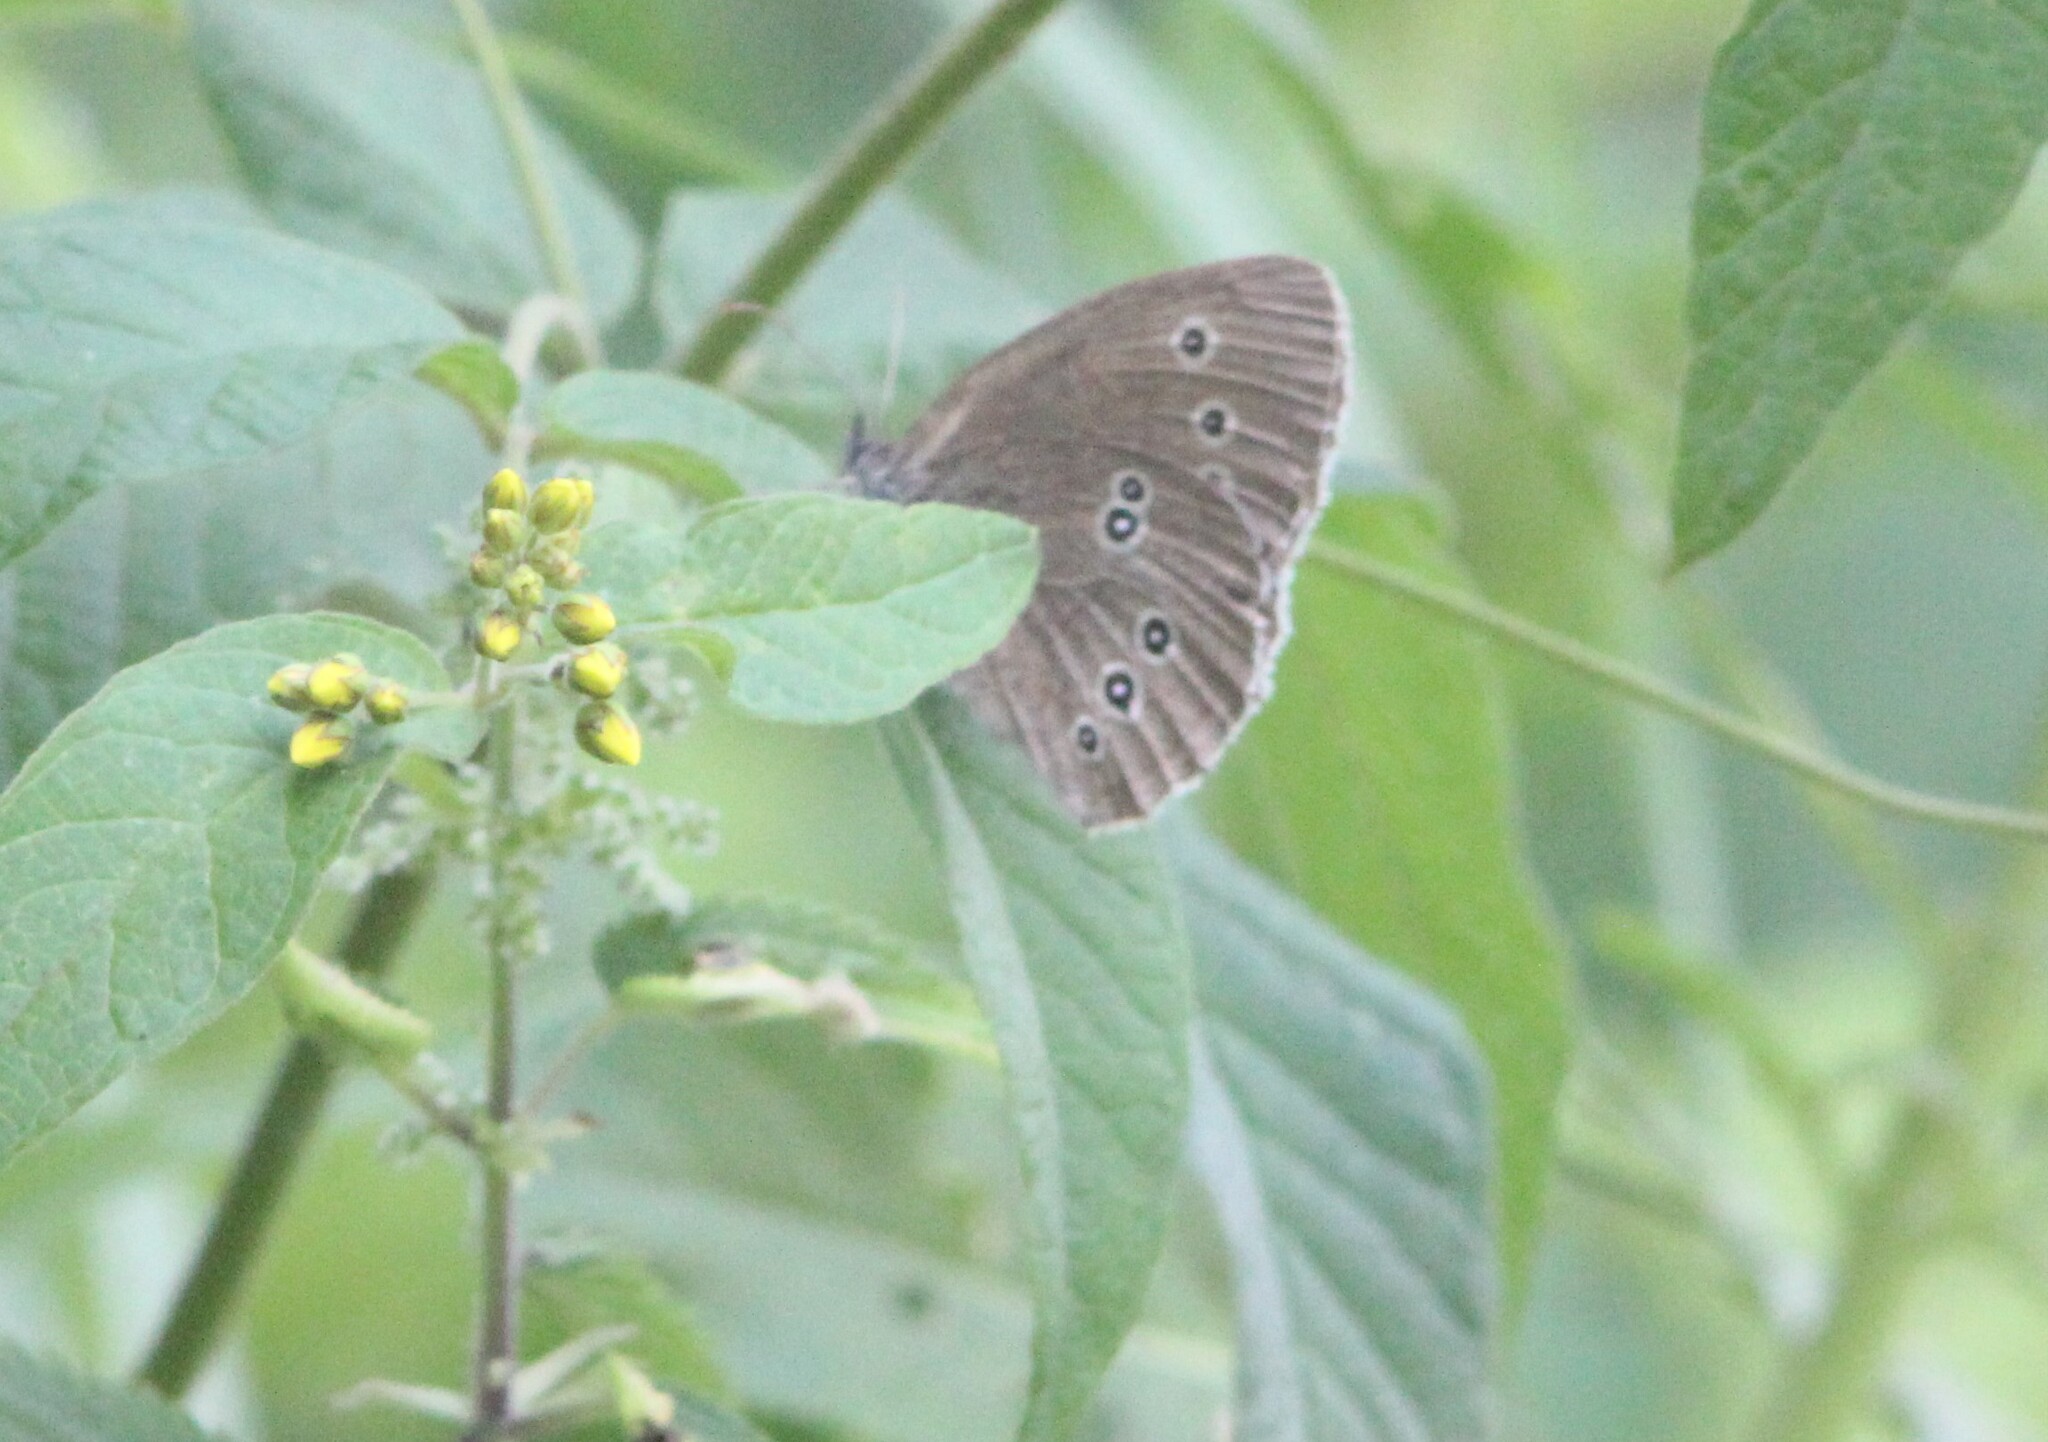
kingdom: Animalia
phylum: Arthropoda
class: Insecta
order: Lepidoptera
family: Nymphalidae
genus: Aphantopus
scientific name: Aphantopus hyperantus
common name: Ringlet
